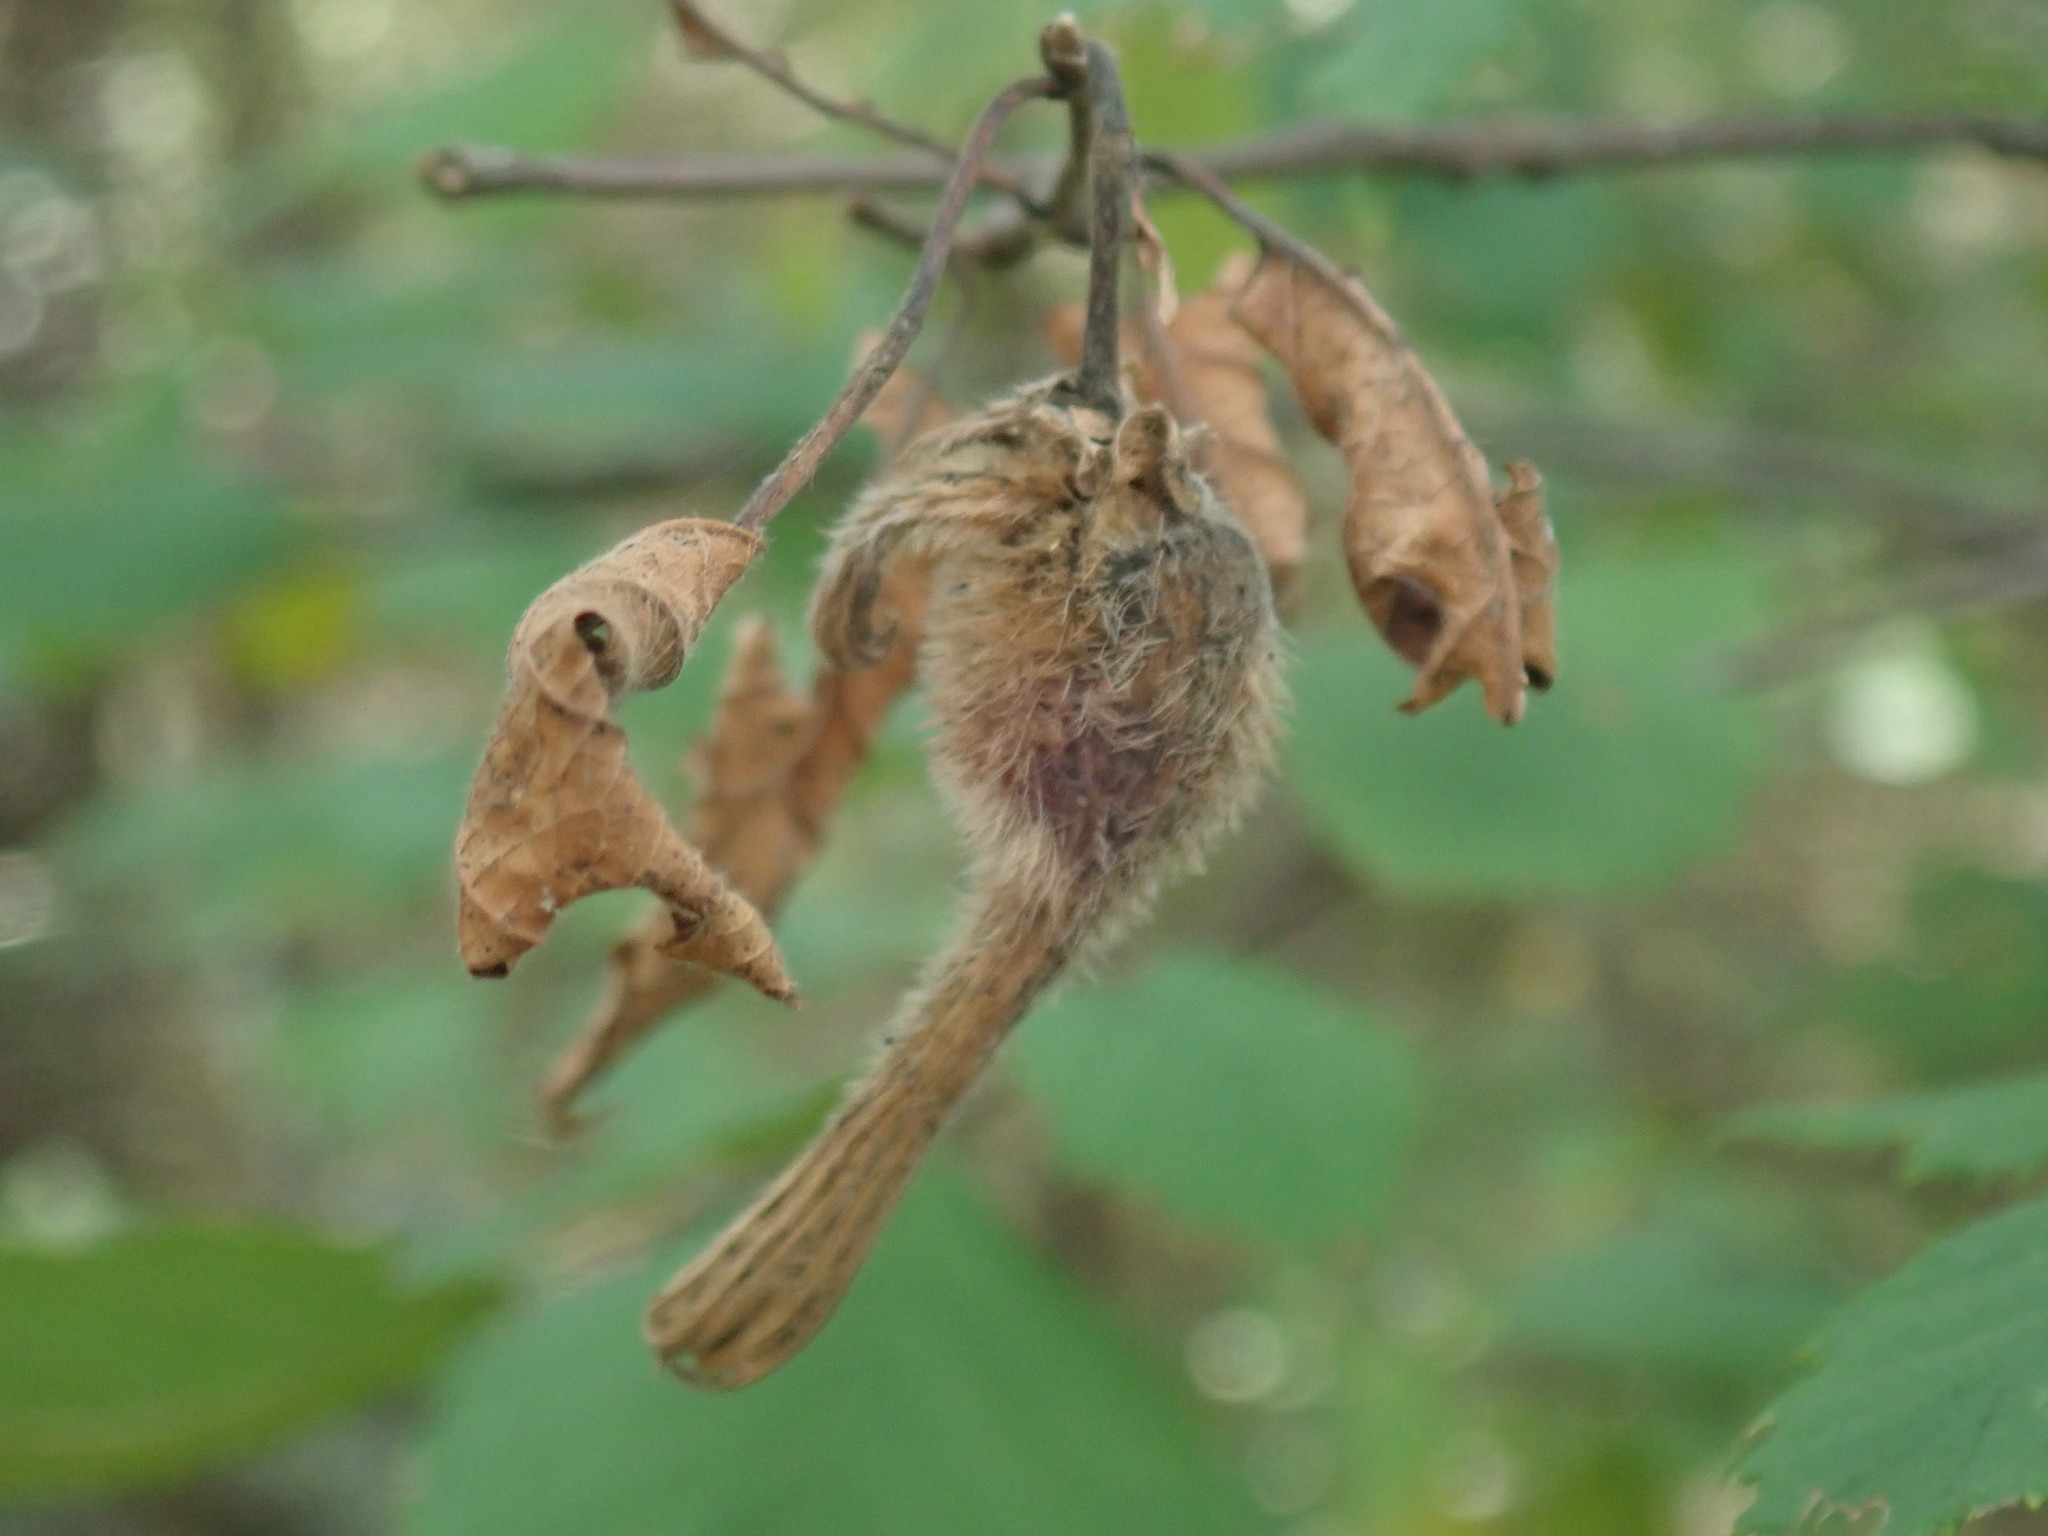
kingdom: Plantae
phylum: Tracheophyta
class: Magnoliopsida
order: Fagales
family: Betulaceae
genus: Corylus
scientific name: Corylus cornuta
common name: Beaked hazel
